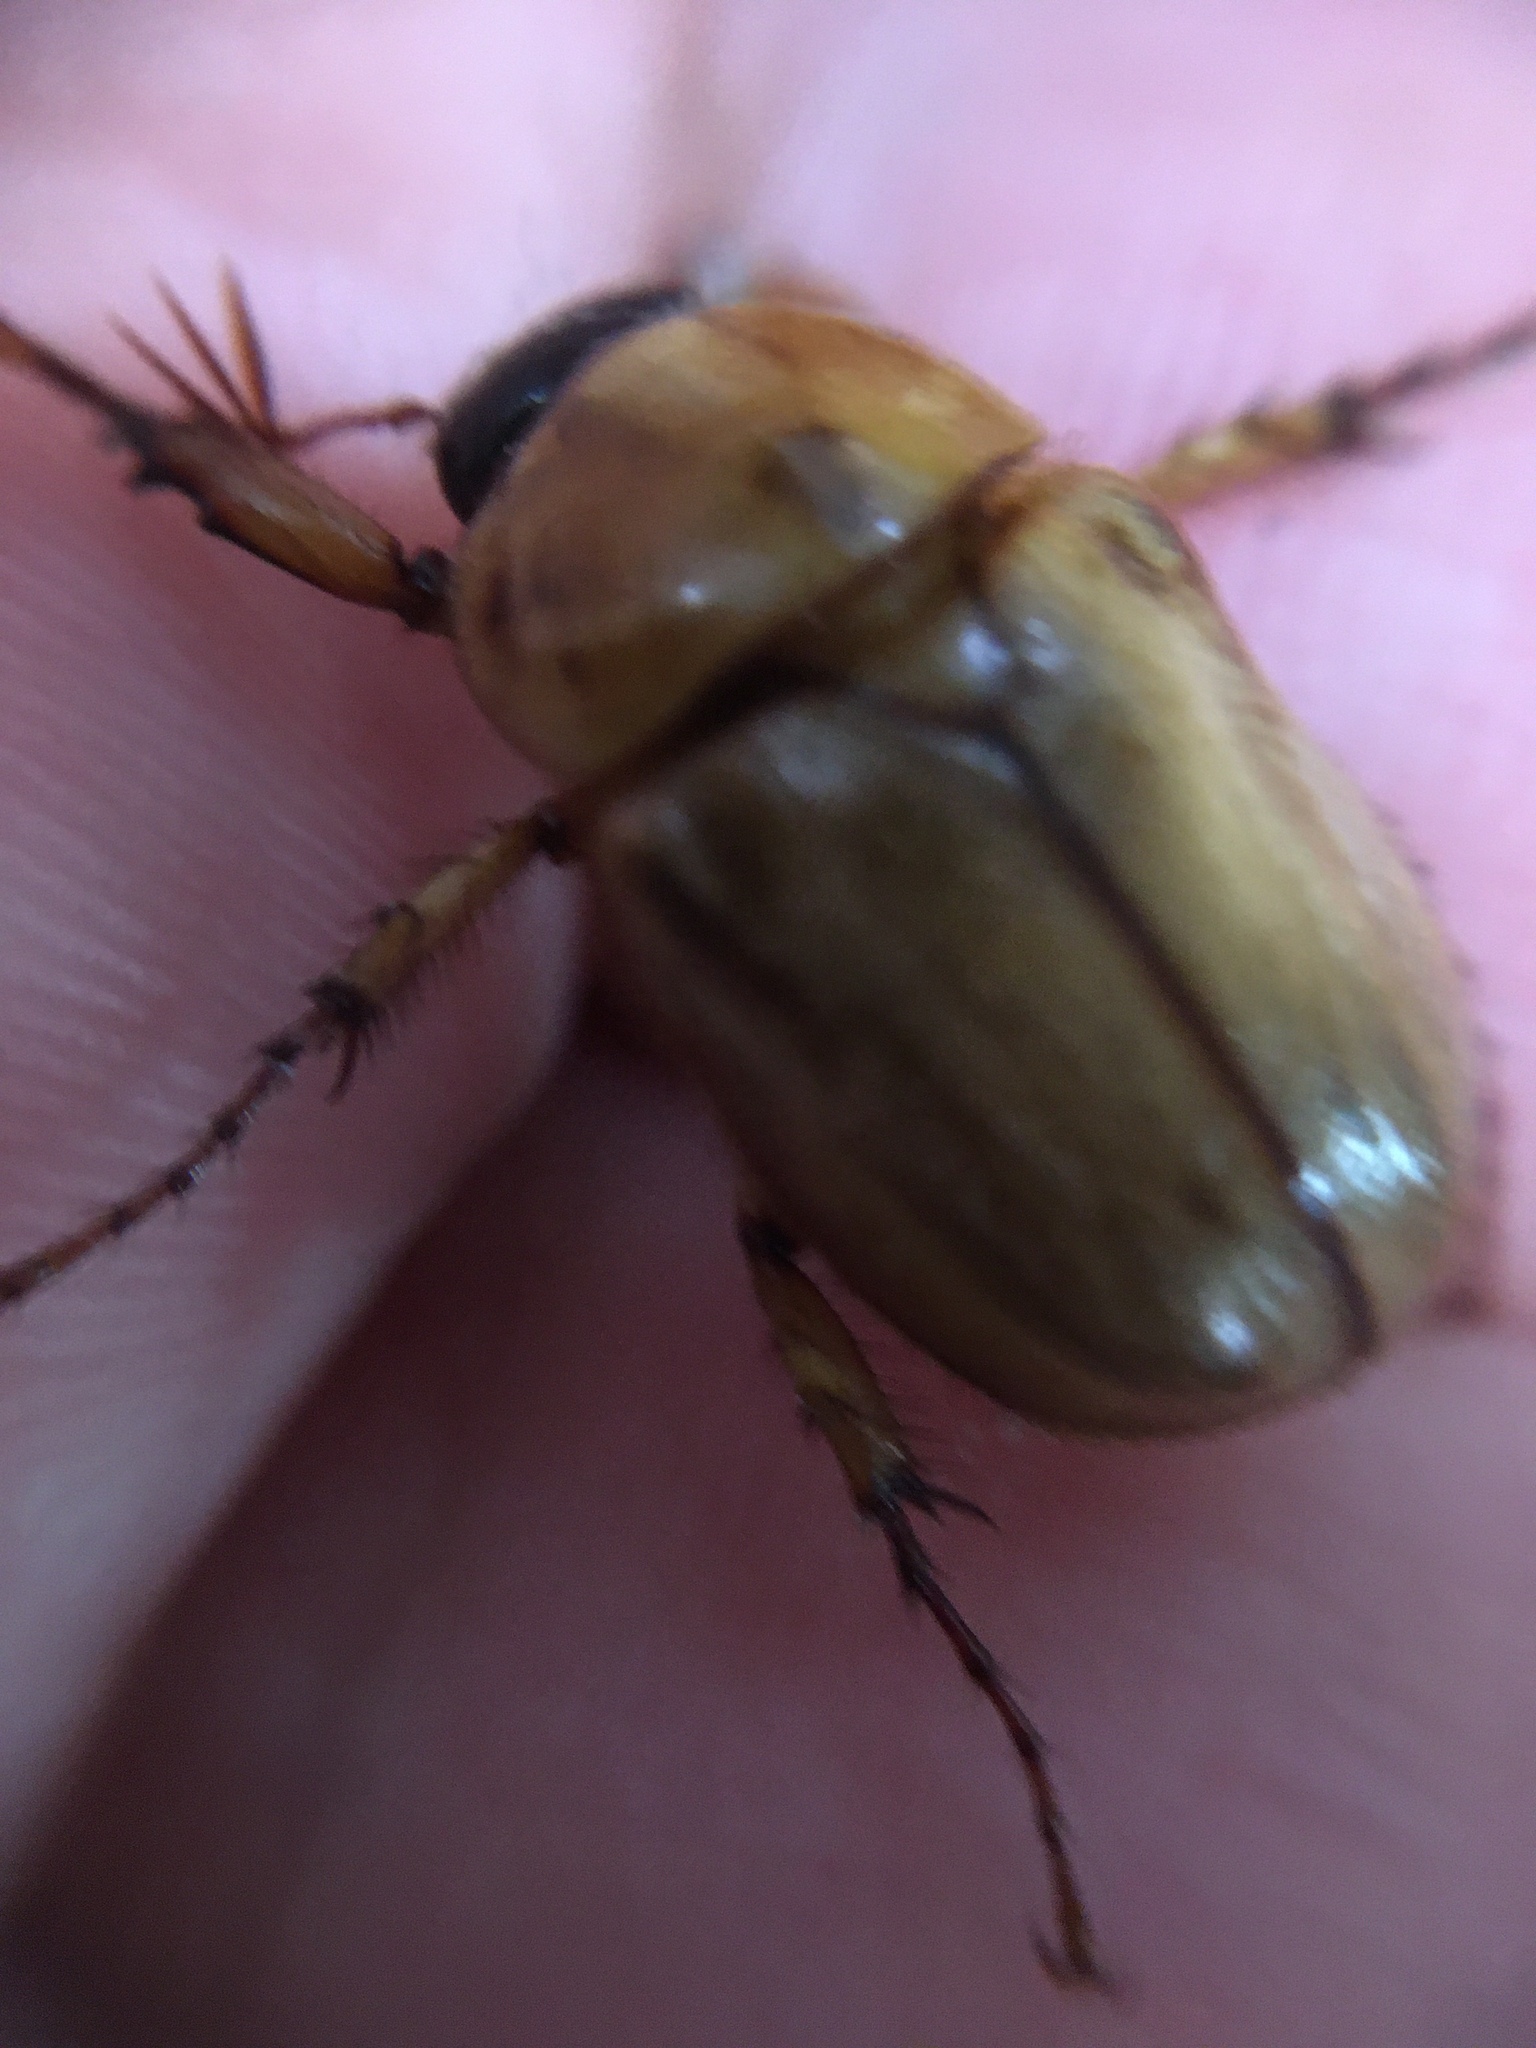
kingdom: Animalia
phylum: Arthropoda
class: Insecta
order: Coleoptera
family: Scarabaeidae
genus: Cyclocephala
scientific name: Cyclocephala signaticollis
